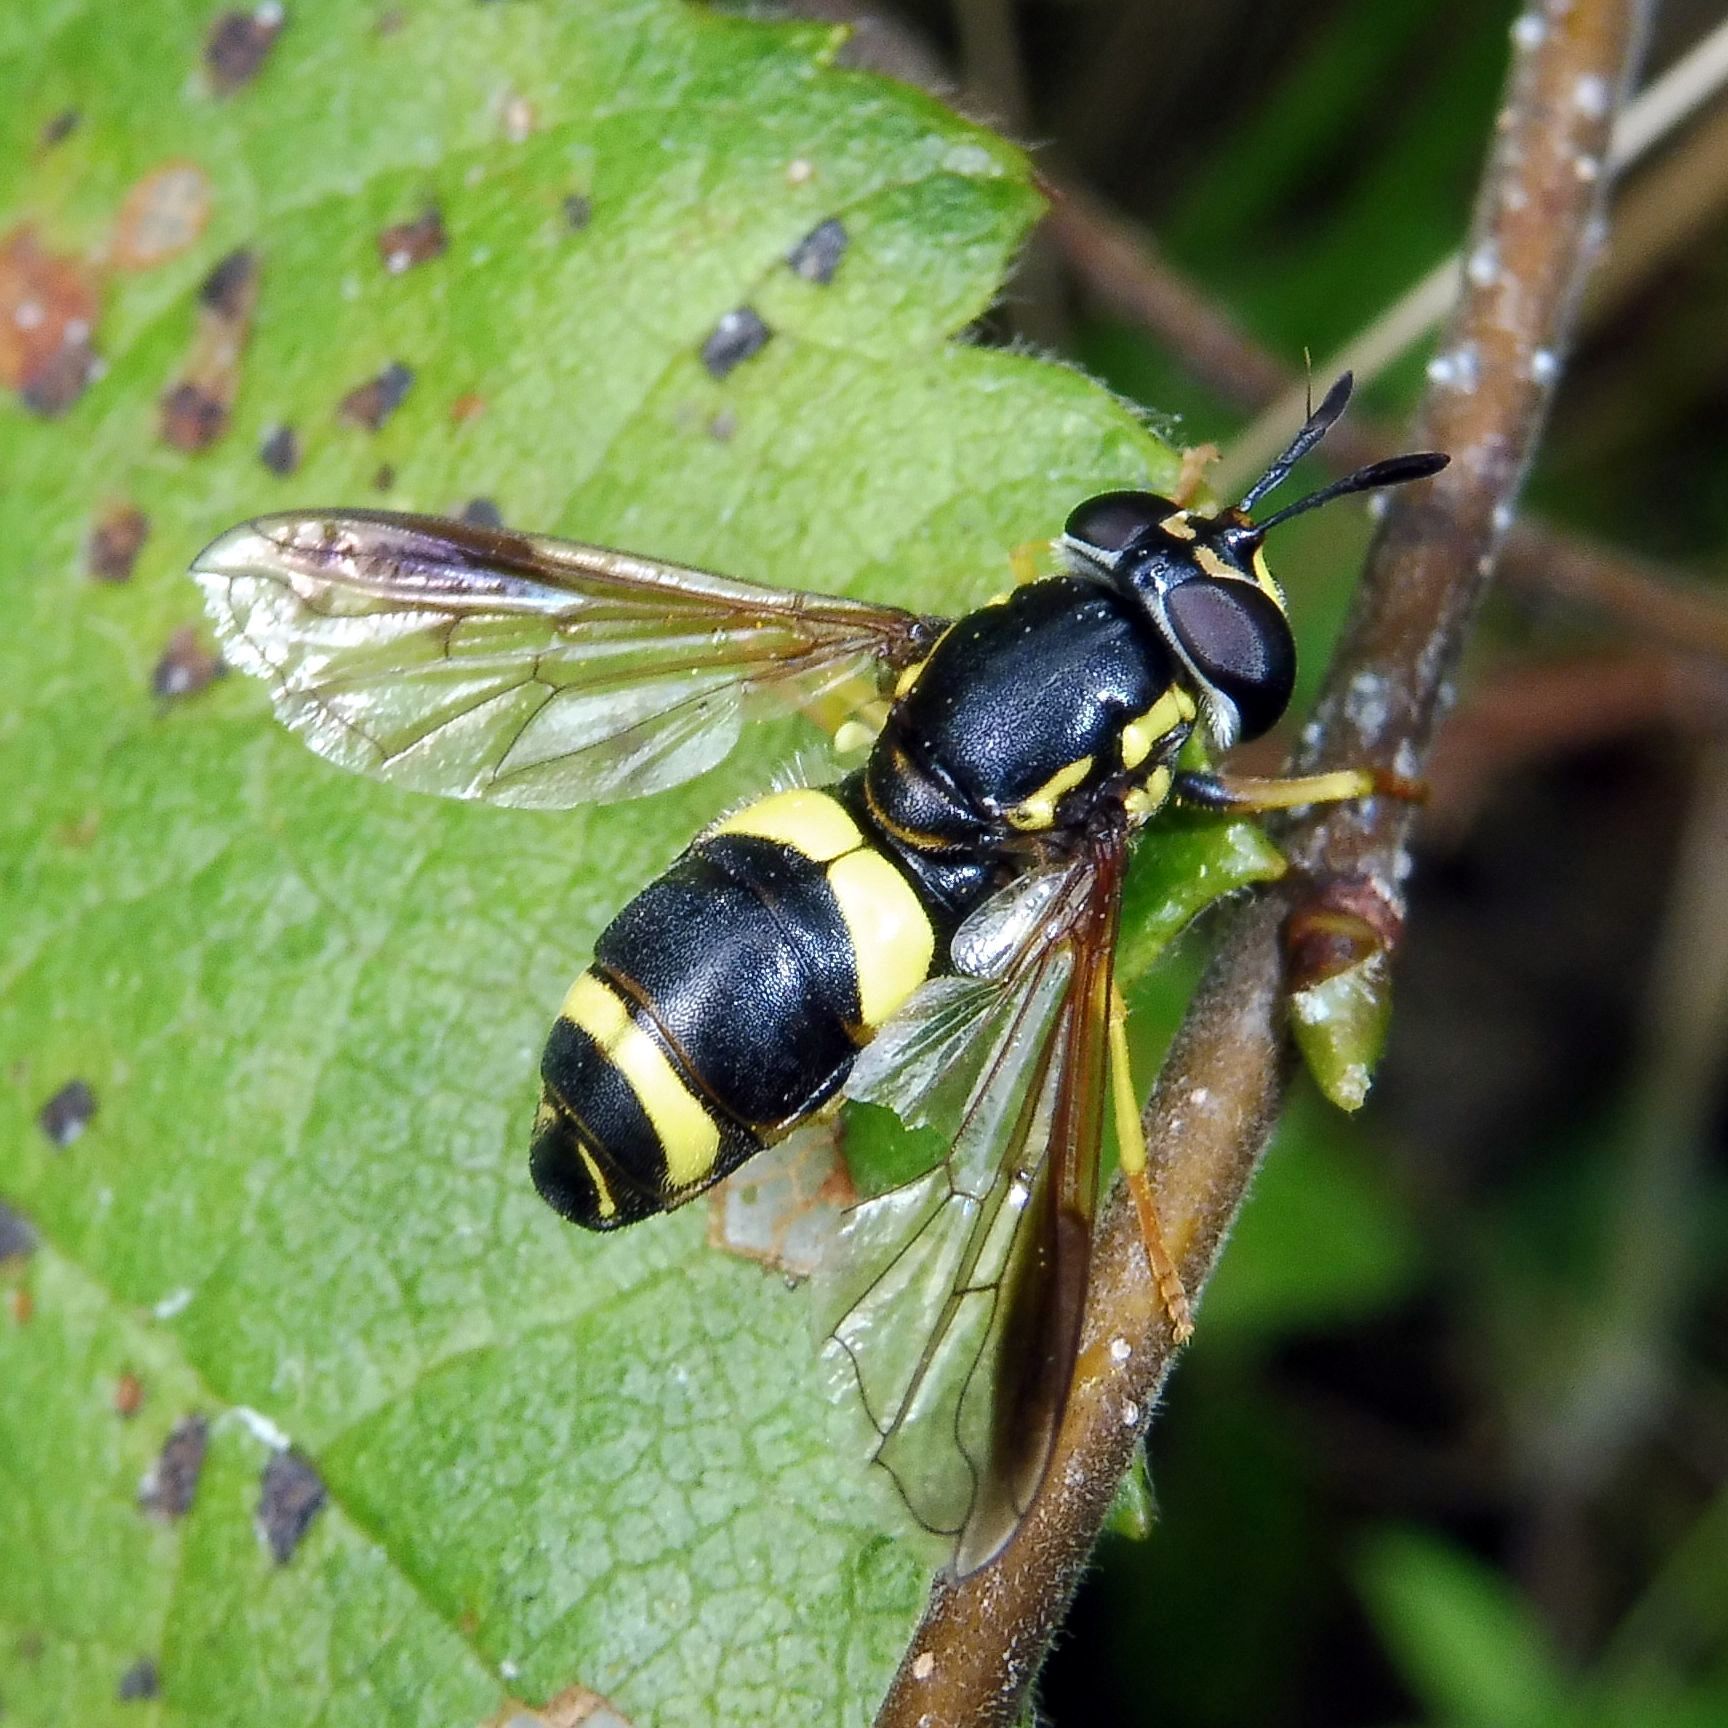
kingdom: Animalia
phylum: Arthropoda
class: Insecta
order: Diptera
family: Syrphidae
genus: Chrysotoxum
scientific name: Chrysotoxum bicincta
